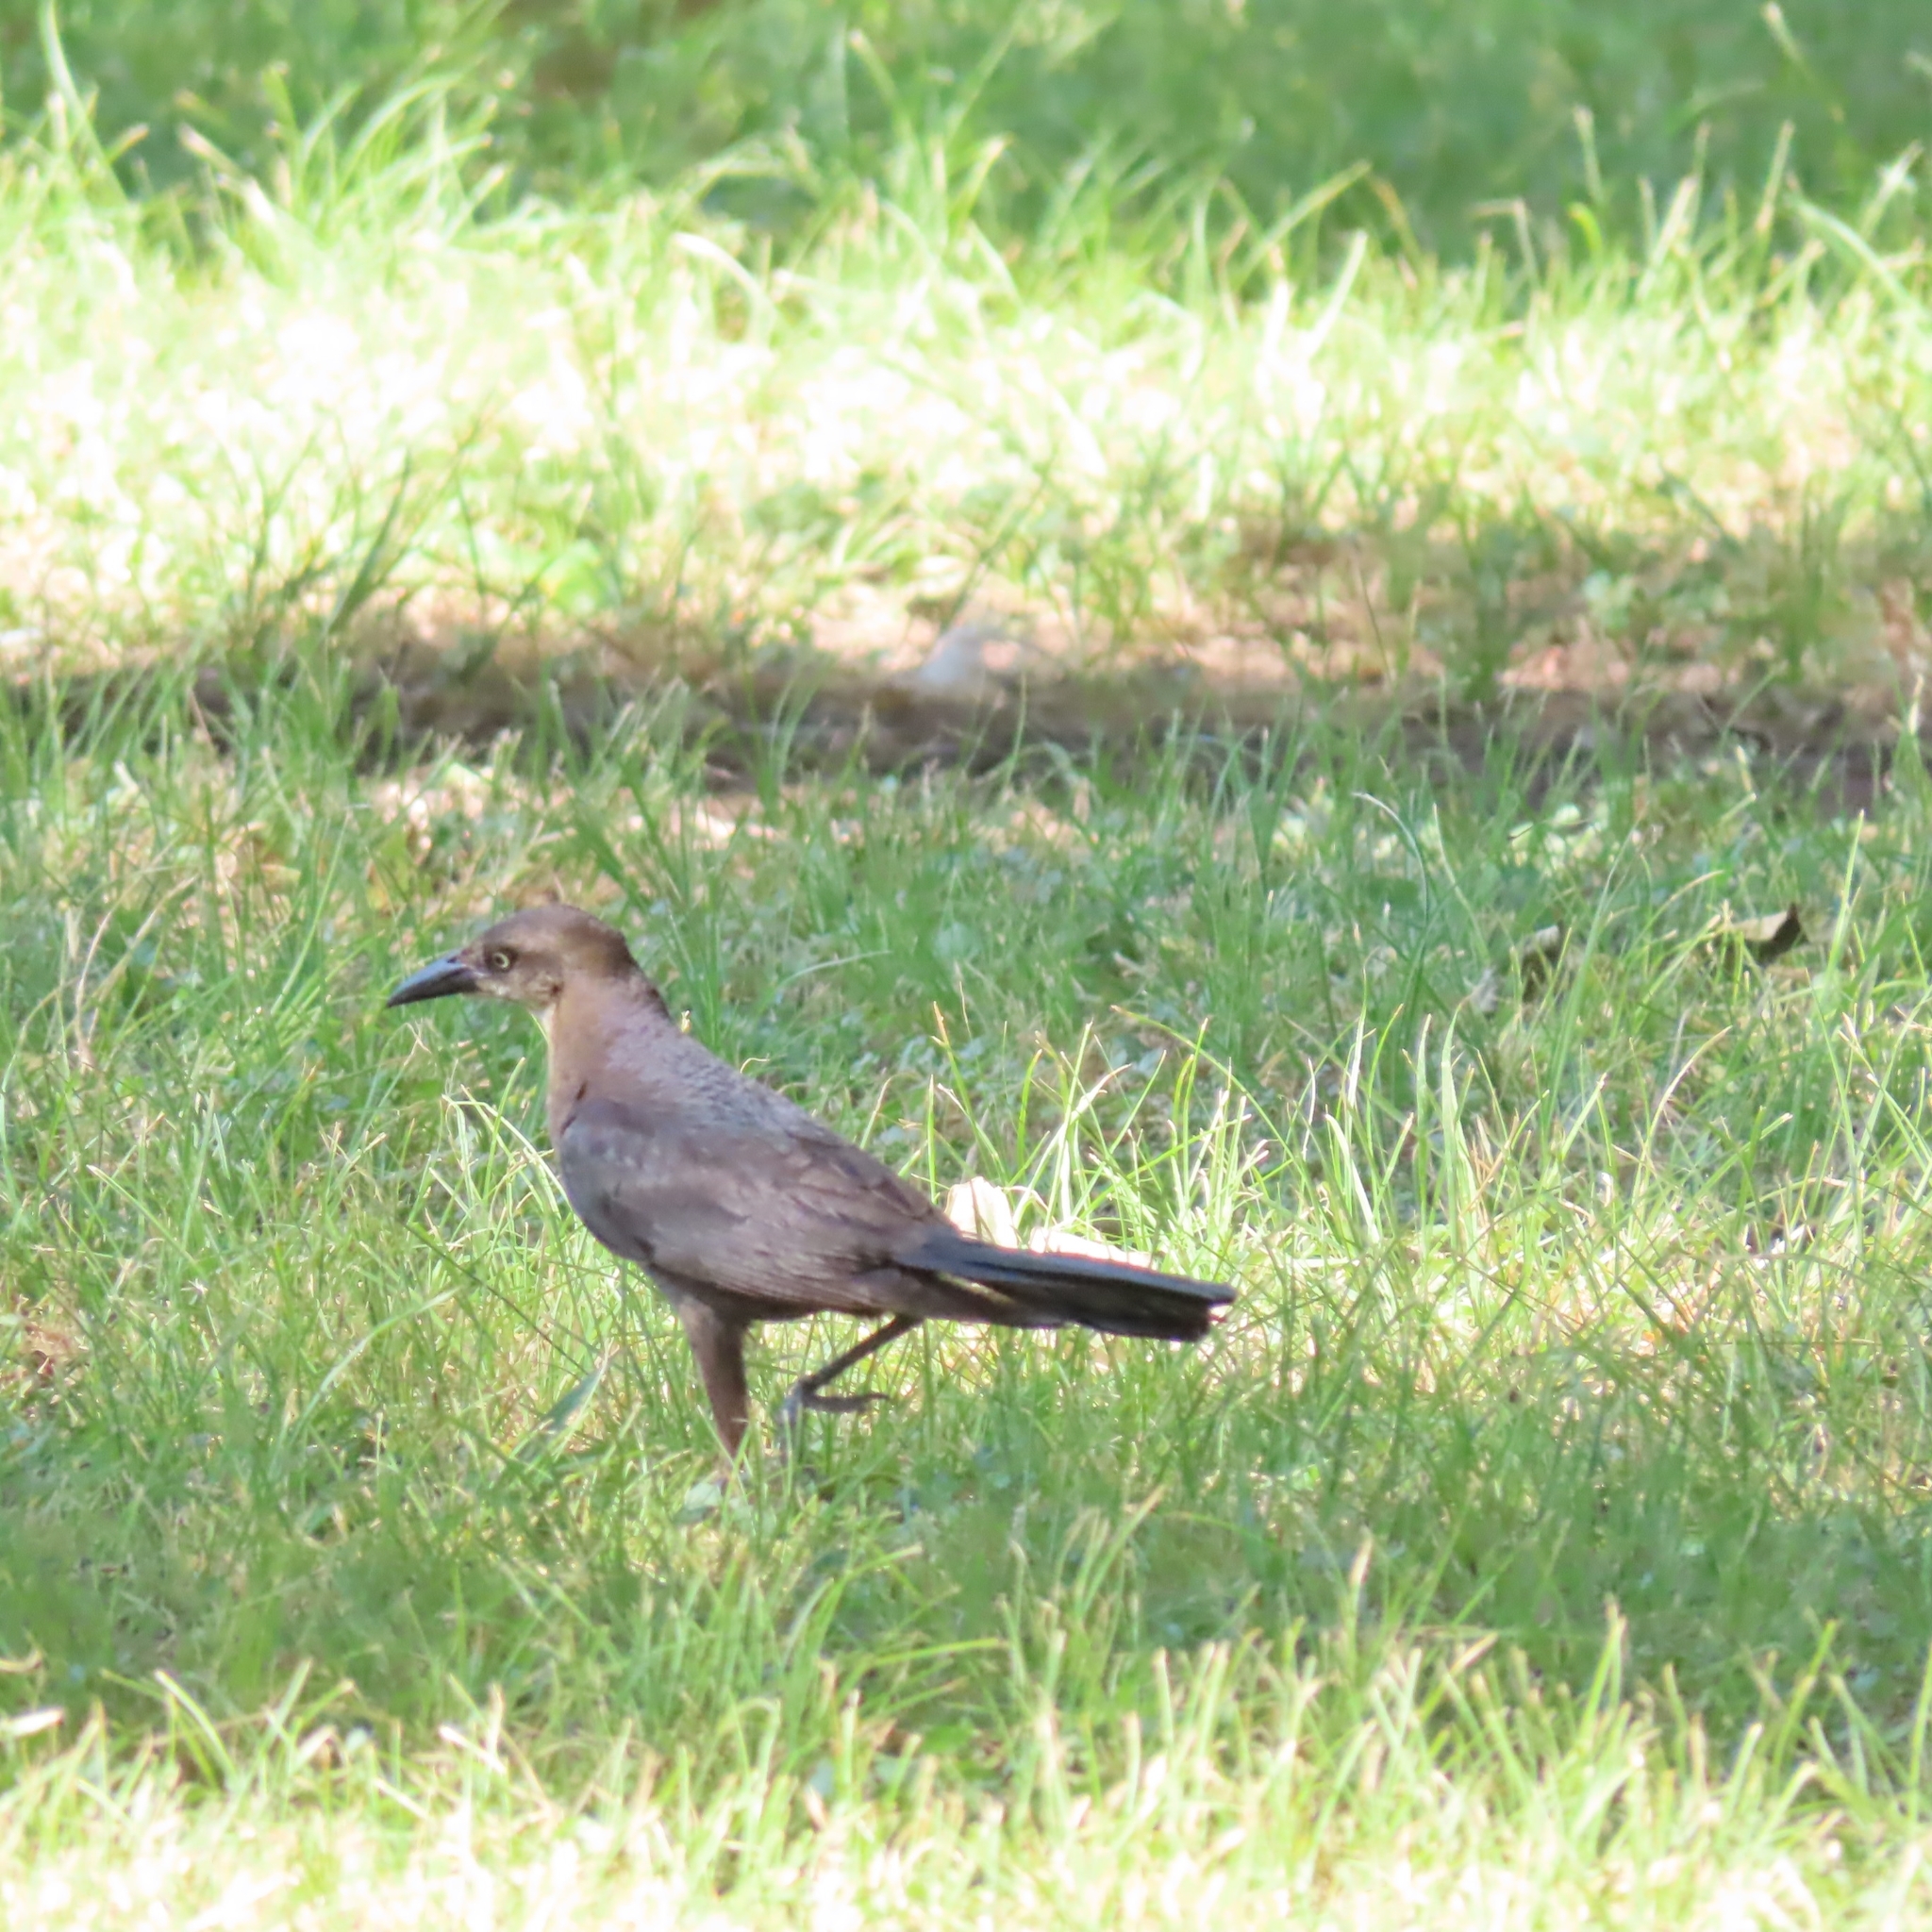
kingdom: Animalia
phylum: Chordata
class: Aves
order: Passeriformes
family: Icteridae
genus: Quiscalus
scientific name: Quiscalus mexicanus
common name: Great-tailed grackle
